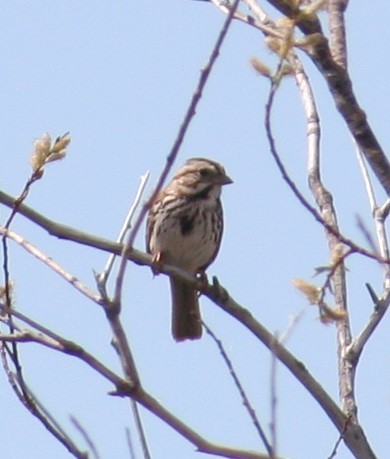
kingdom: Animalia
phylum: Chordata
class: Aves
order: Passeriformes
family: Passerellidae
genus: Melospiza
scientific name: Melospiza melodia
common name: Song sparrow
